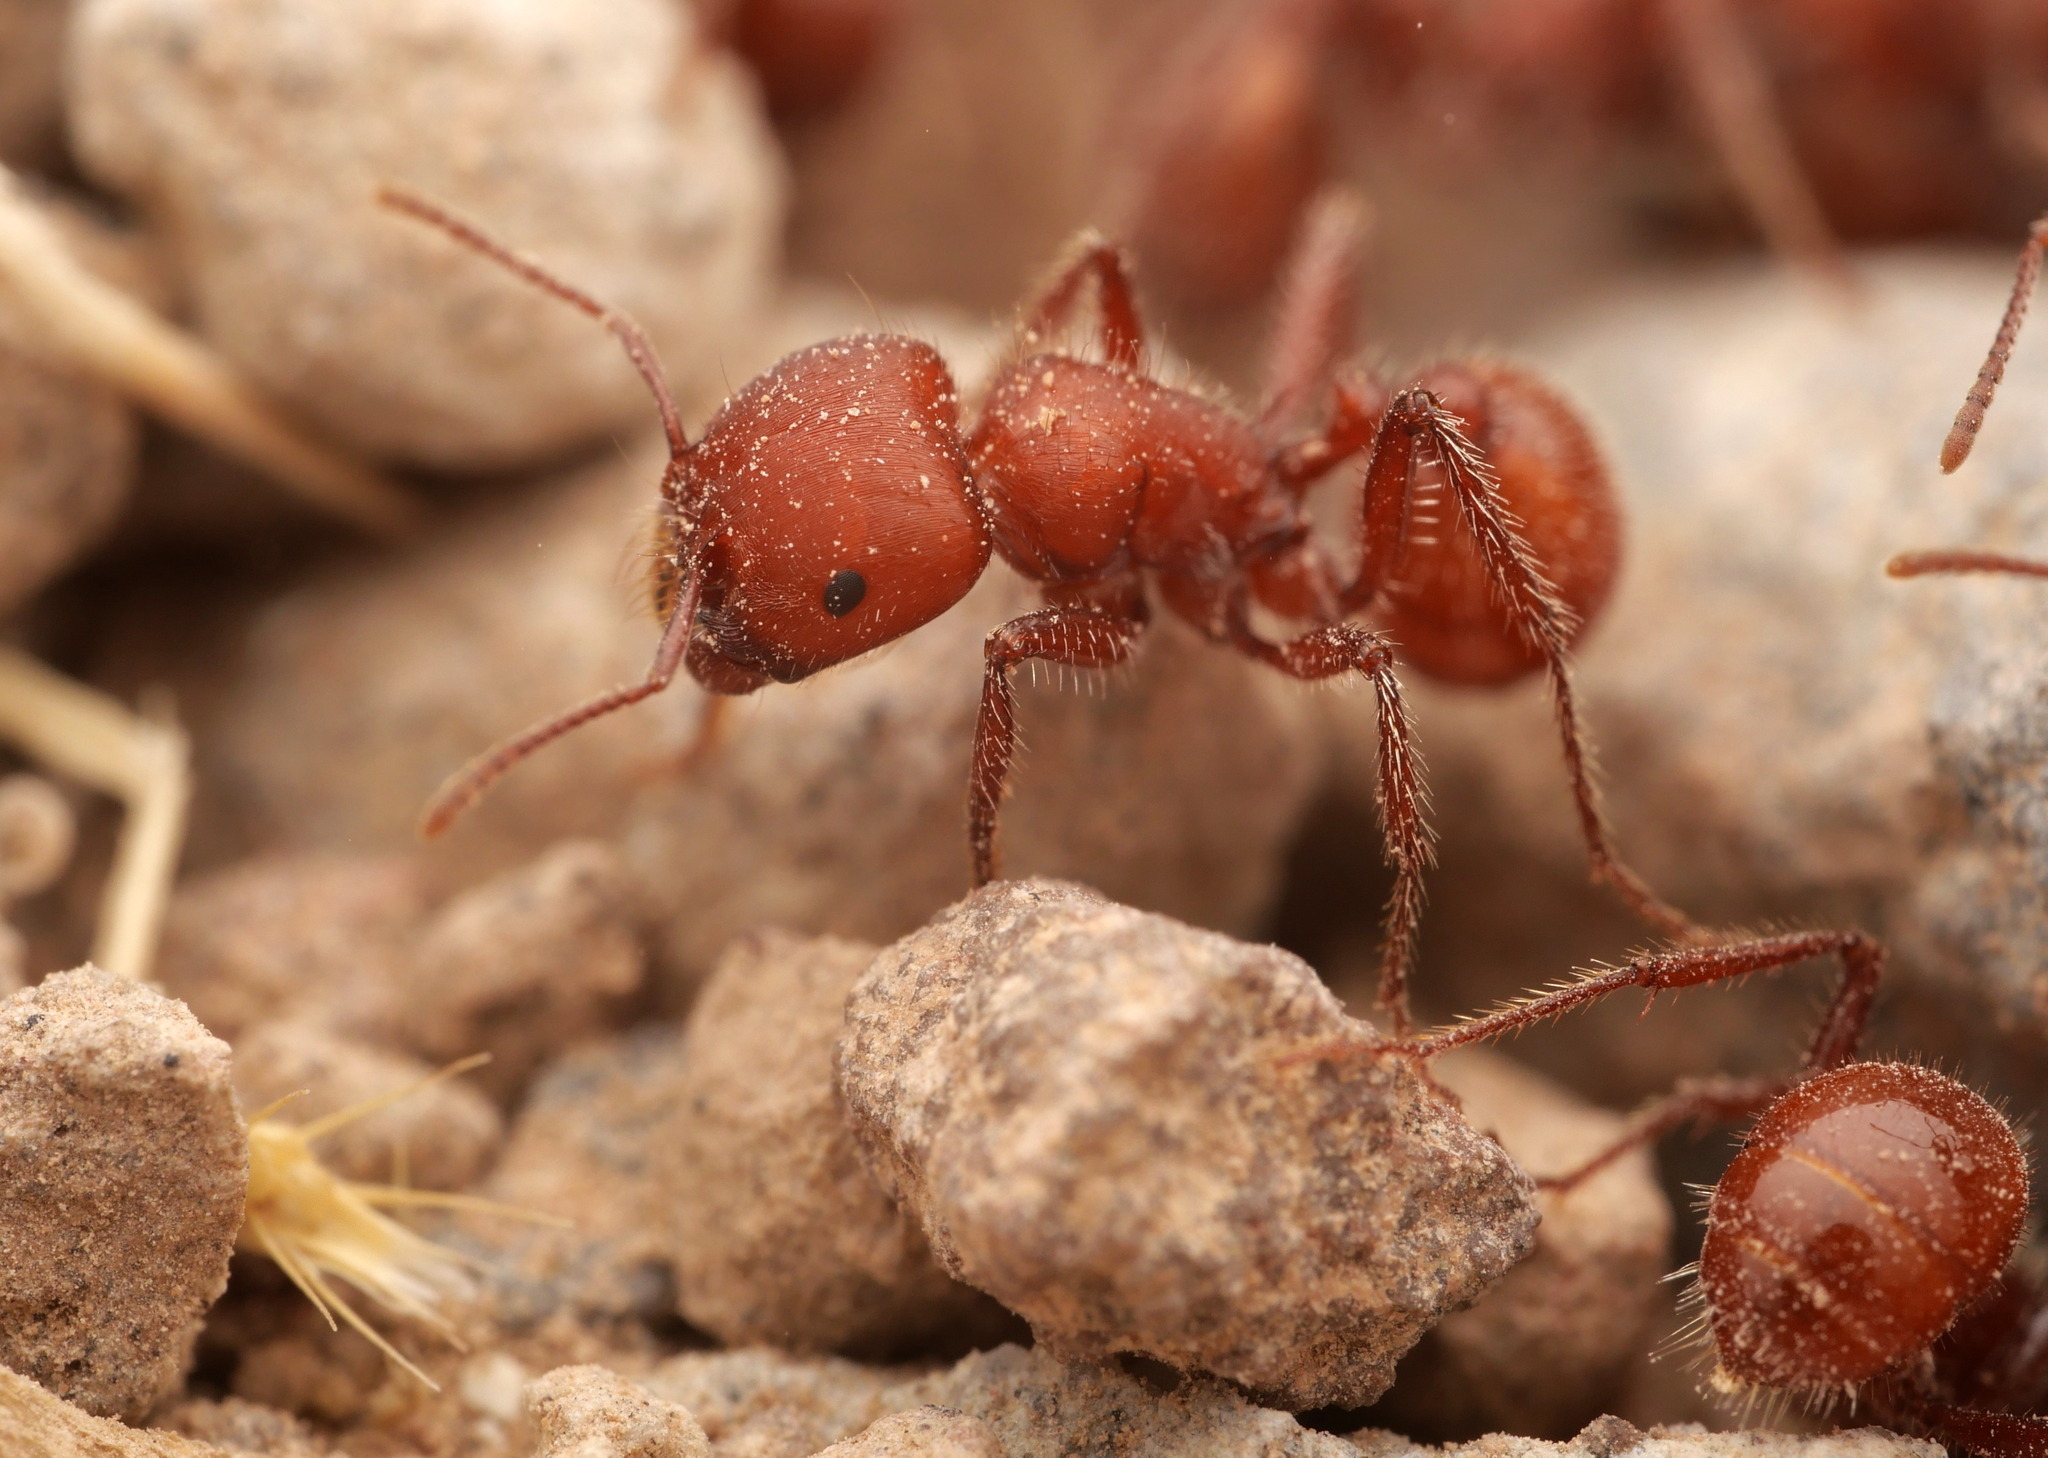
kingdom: Animalia
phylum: Arthropoda
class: Insecta
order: Hymenoptera
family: Formicidae
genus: Pogonomyrmex
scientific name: Pogonomyrmex tenuispinus
